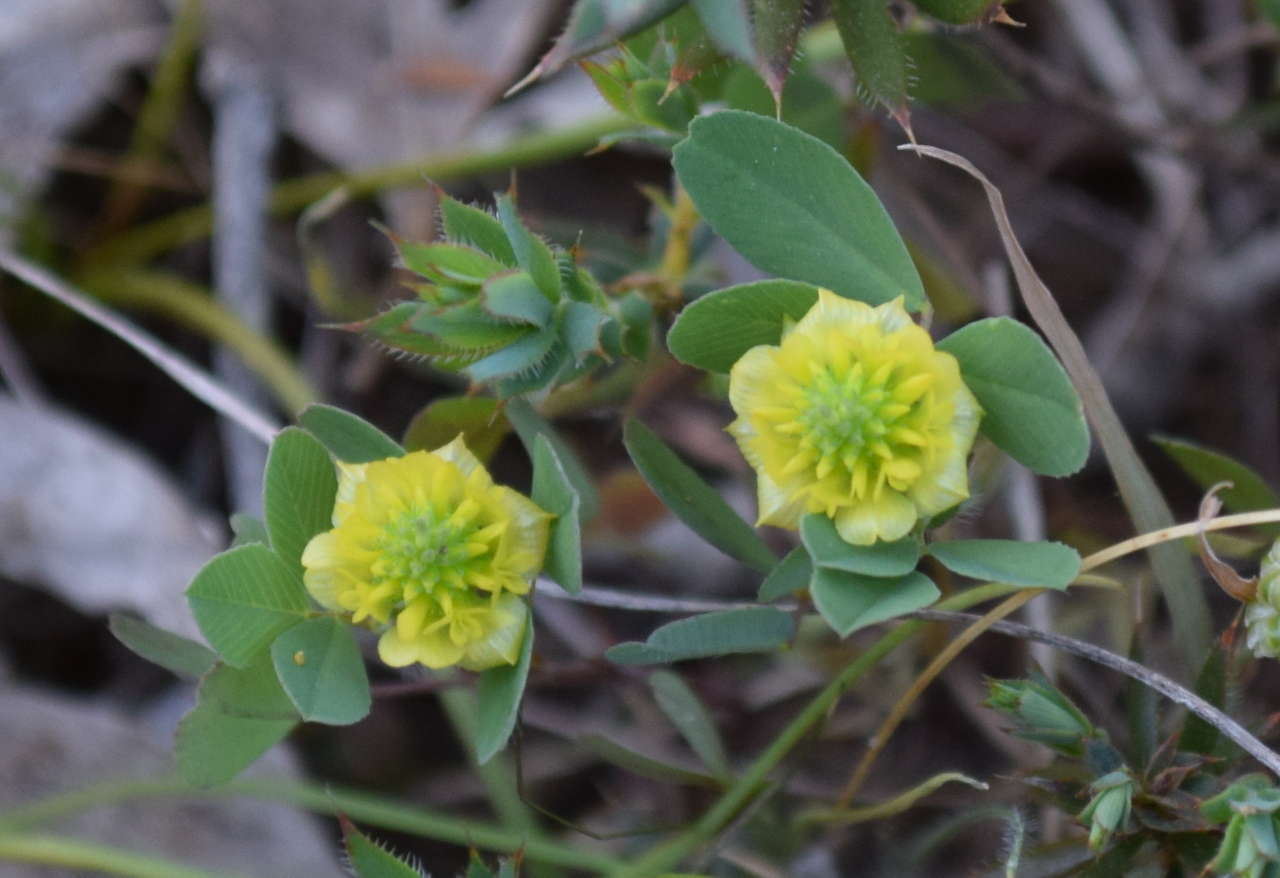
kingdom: Plantae
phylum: Tracheophyta
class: Magnoliopsida
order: Fabales
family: Fabaceae
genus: Trifolium
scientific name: Trifolium campestre
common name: Field clover
